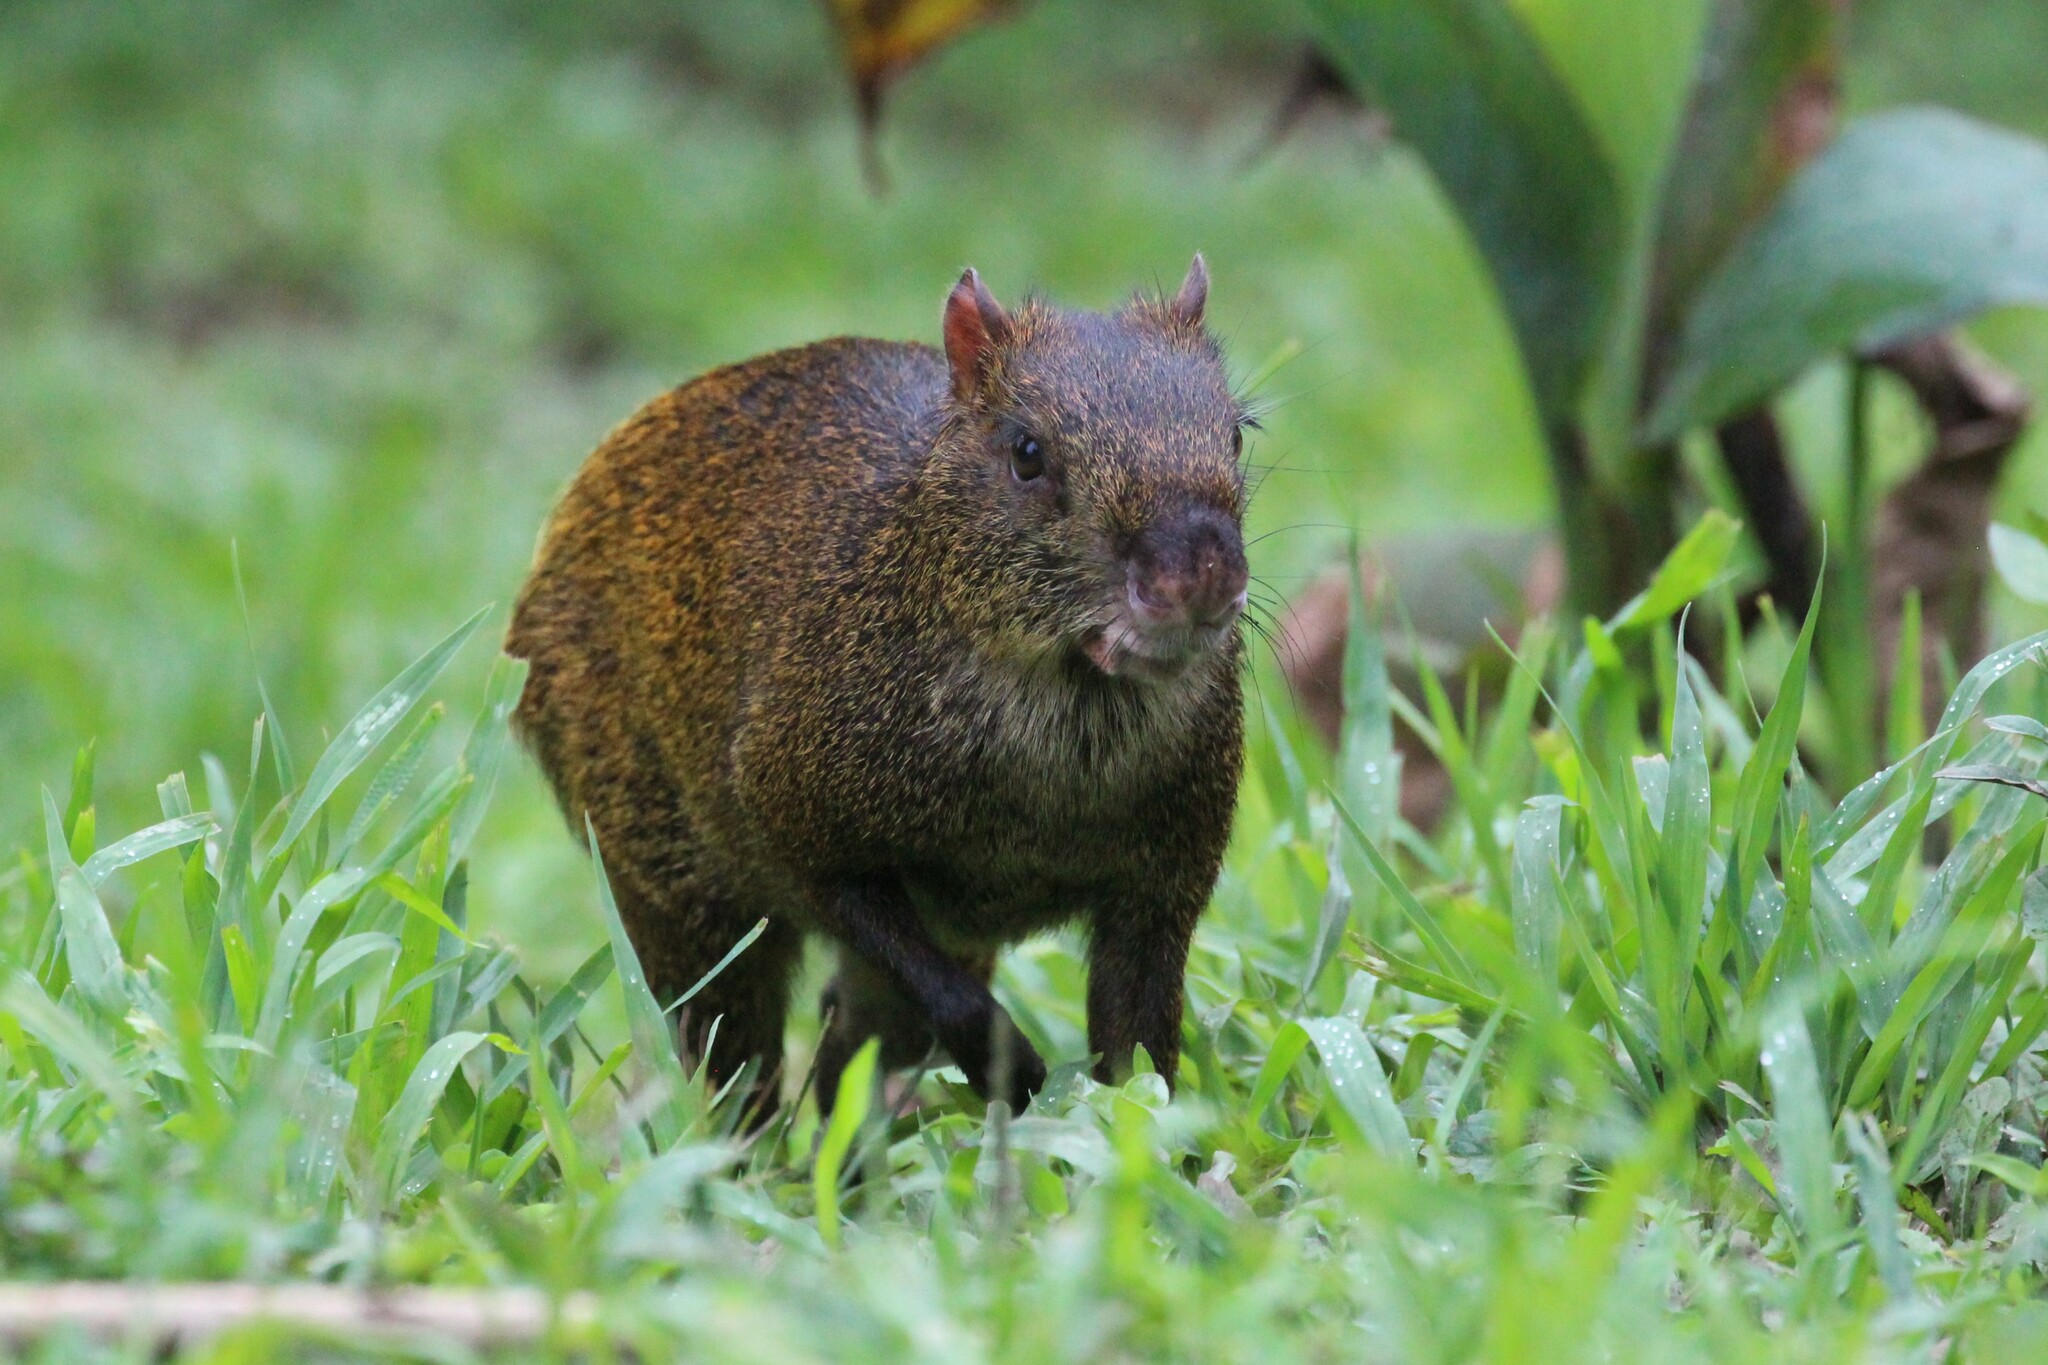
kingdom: Animalia
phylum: Chordata
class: Mammalia
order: Rodentia
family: Dasyproctidae
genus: Dasyprocta
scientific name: Dasyprocta punctata
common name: Central american agouti
